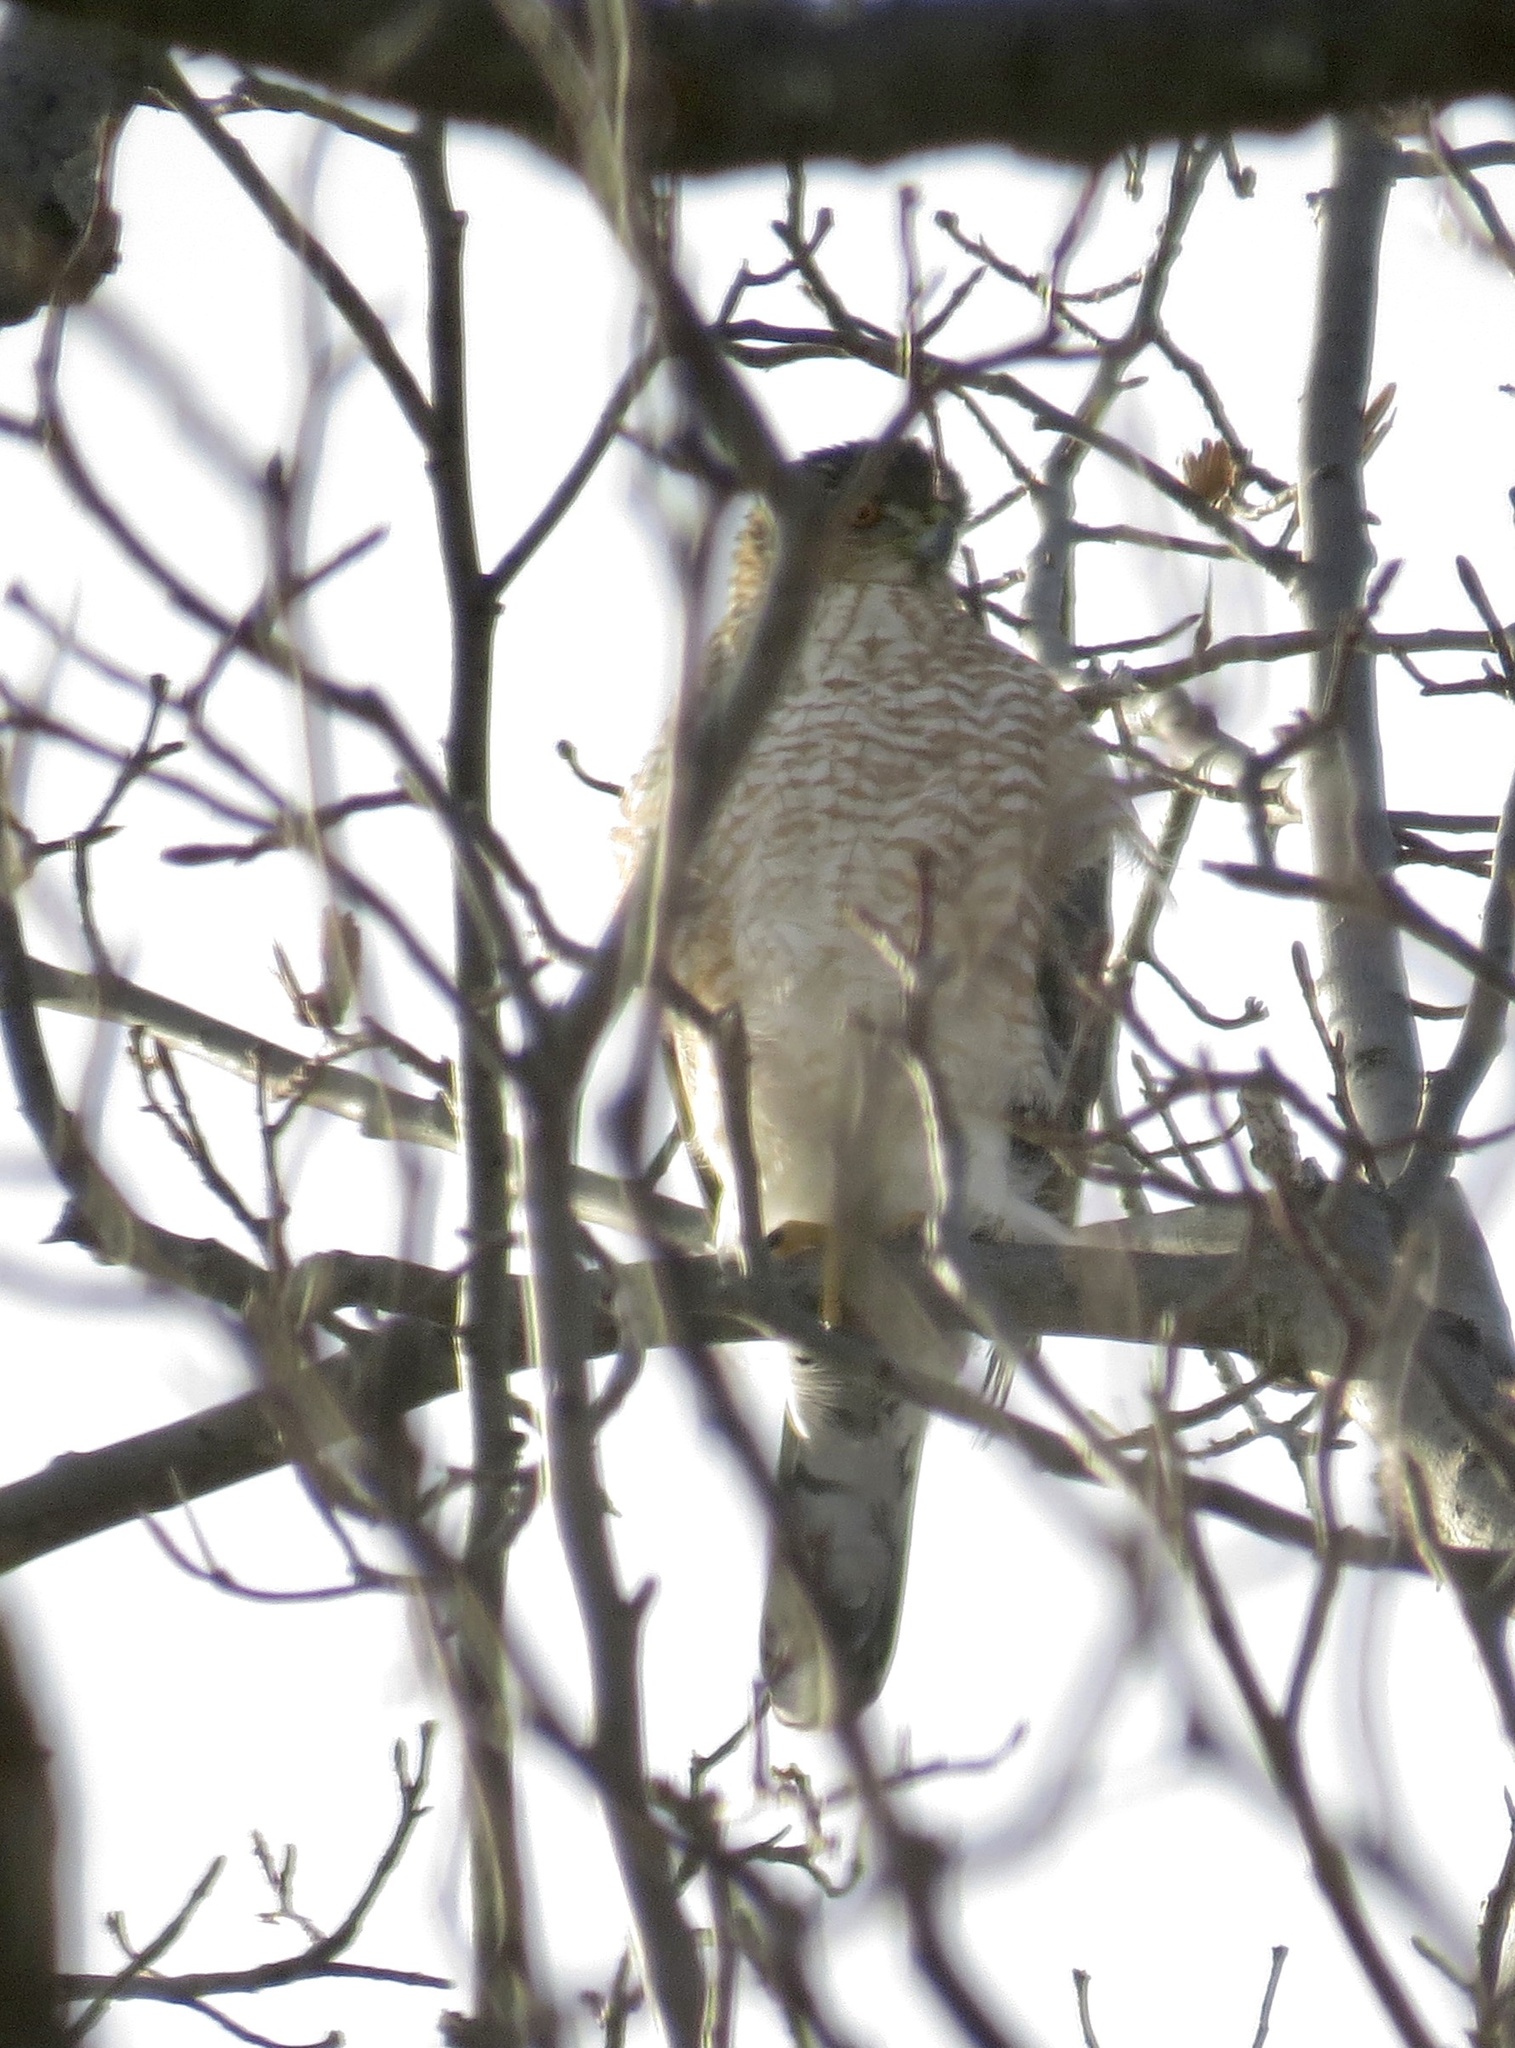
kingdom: Animalia
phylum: Chordata
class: Aves
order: Accipitriformes
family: Accipitridae
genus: Accipiter
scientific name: Accipiter cooperii
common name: Cooper's hawk
